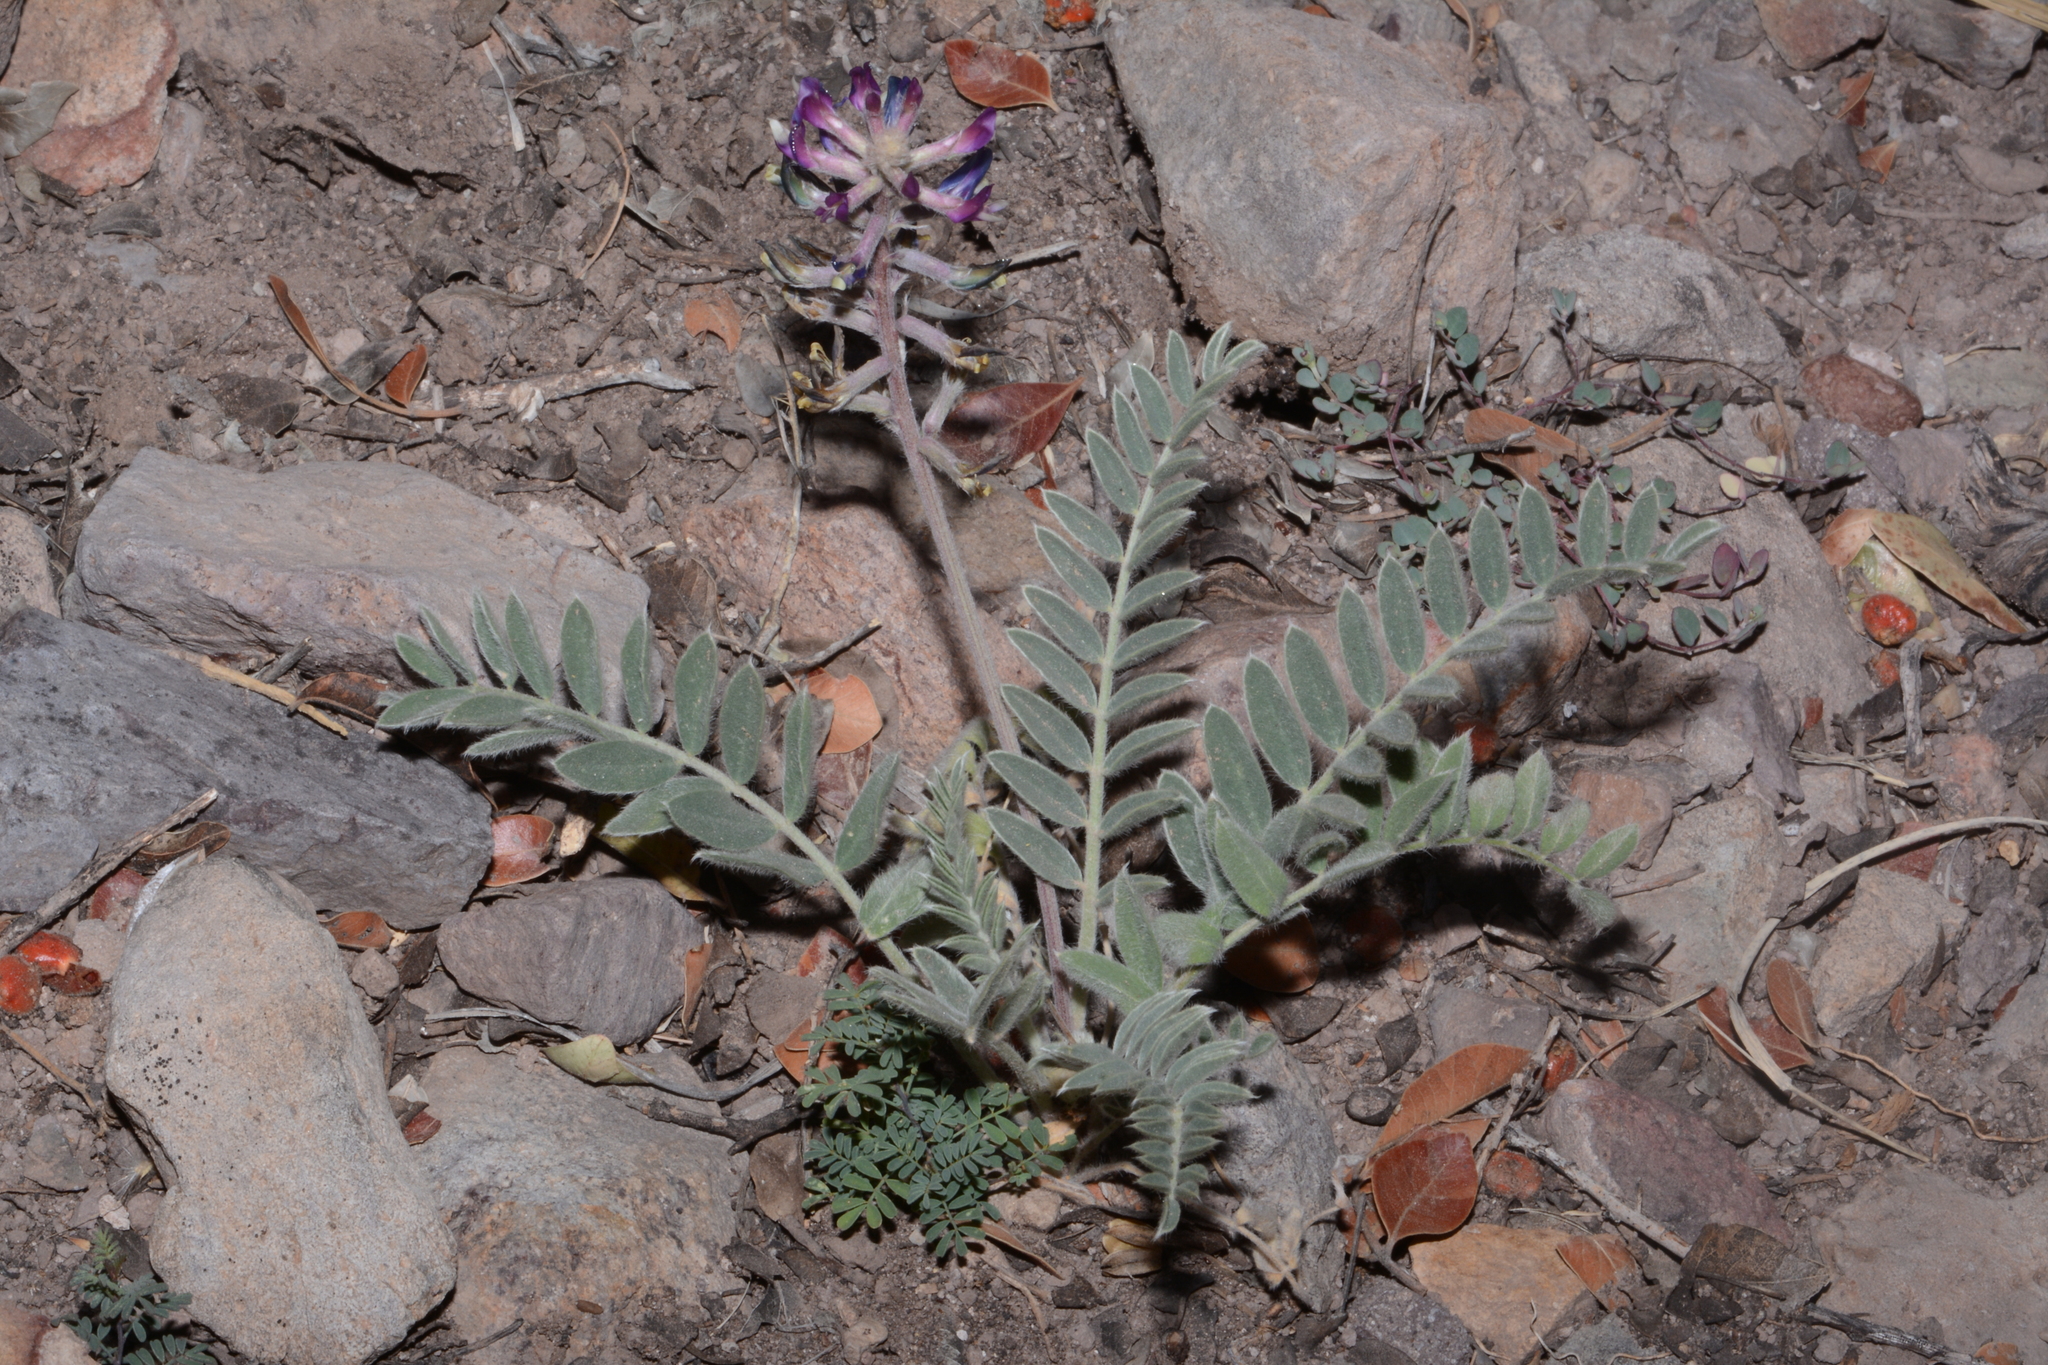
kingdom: Plantae
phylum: Tracheophyta
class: Magnoliopsida
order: Fabales
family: Fabaceae
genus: Astragalus
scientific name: Astragalus mollissimus
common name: Woolly locoweed
